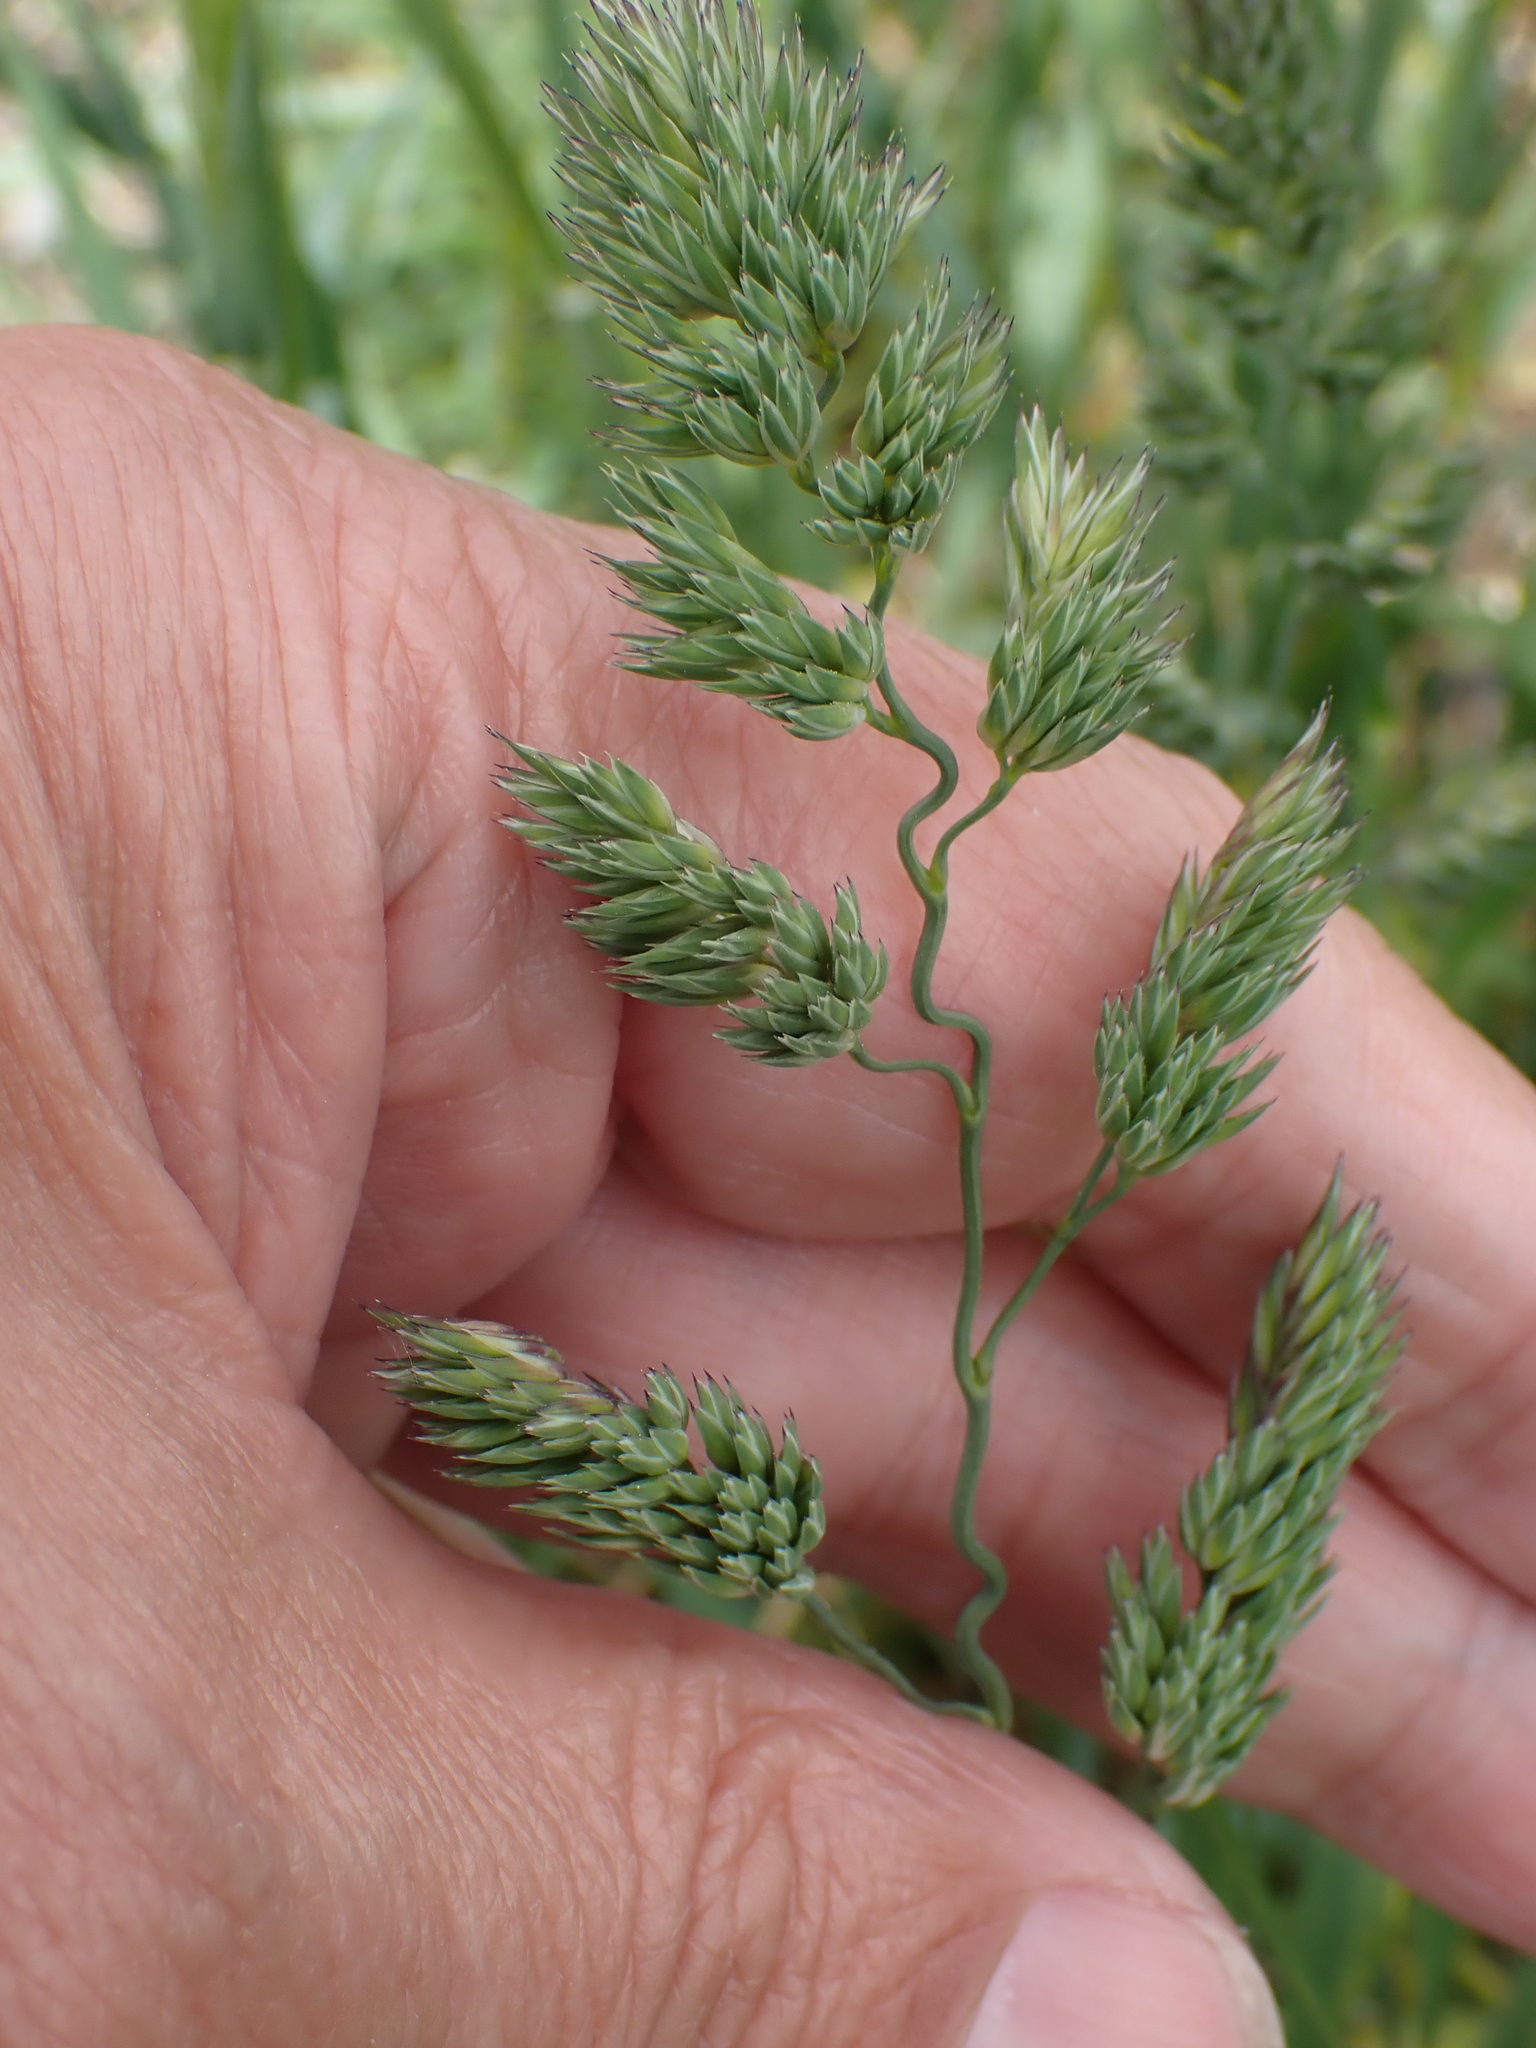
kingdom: Plantae
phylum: Tracheophyta
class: Liliopsida
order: Poales
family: Poaceae
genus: Dactylis
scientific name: Dactylis glomerata
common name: Orchardgrass
